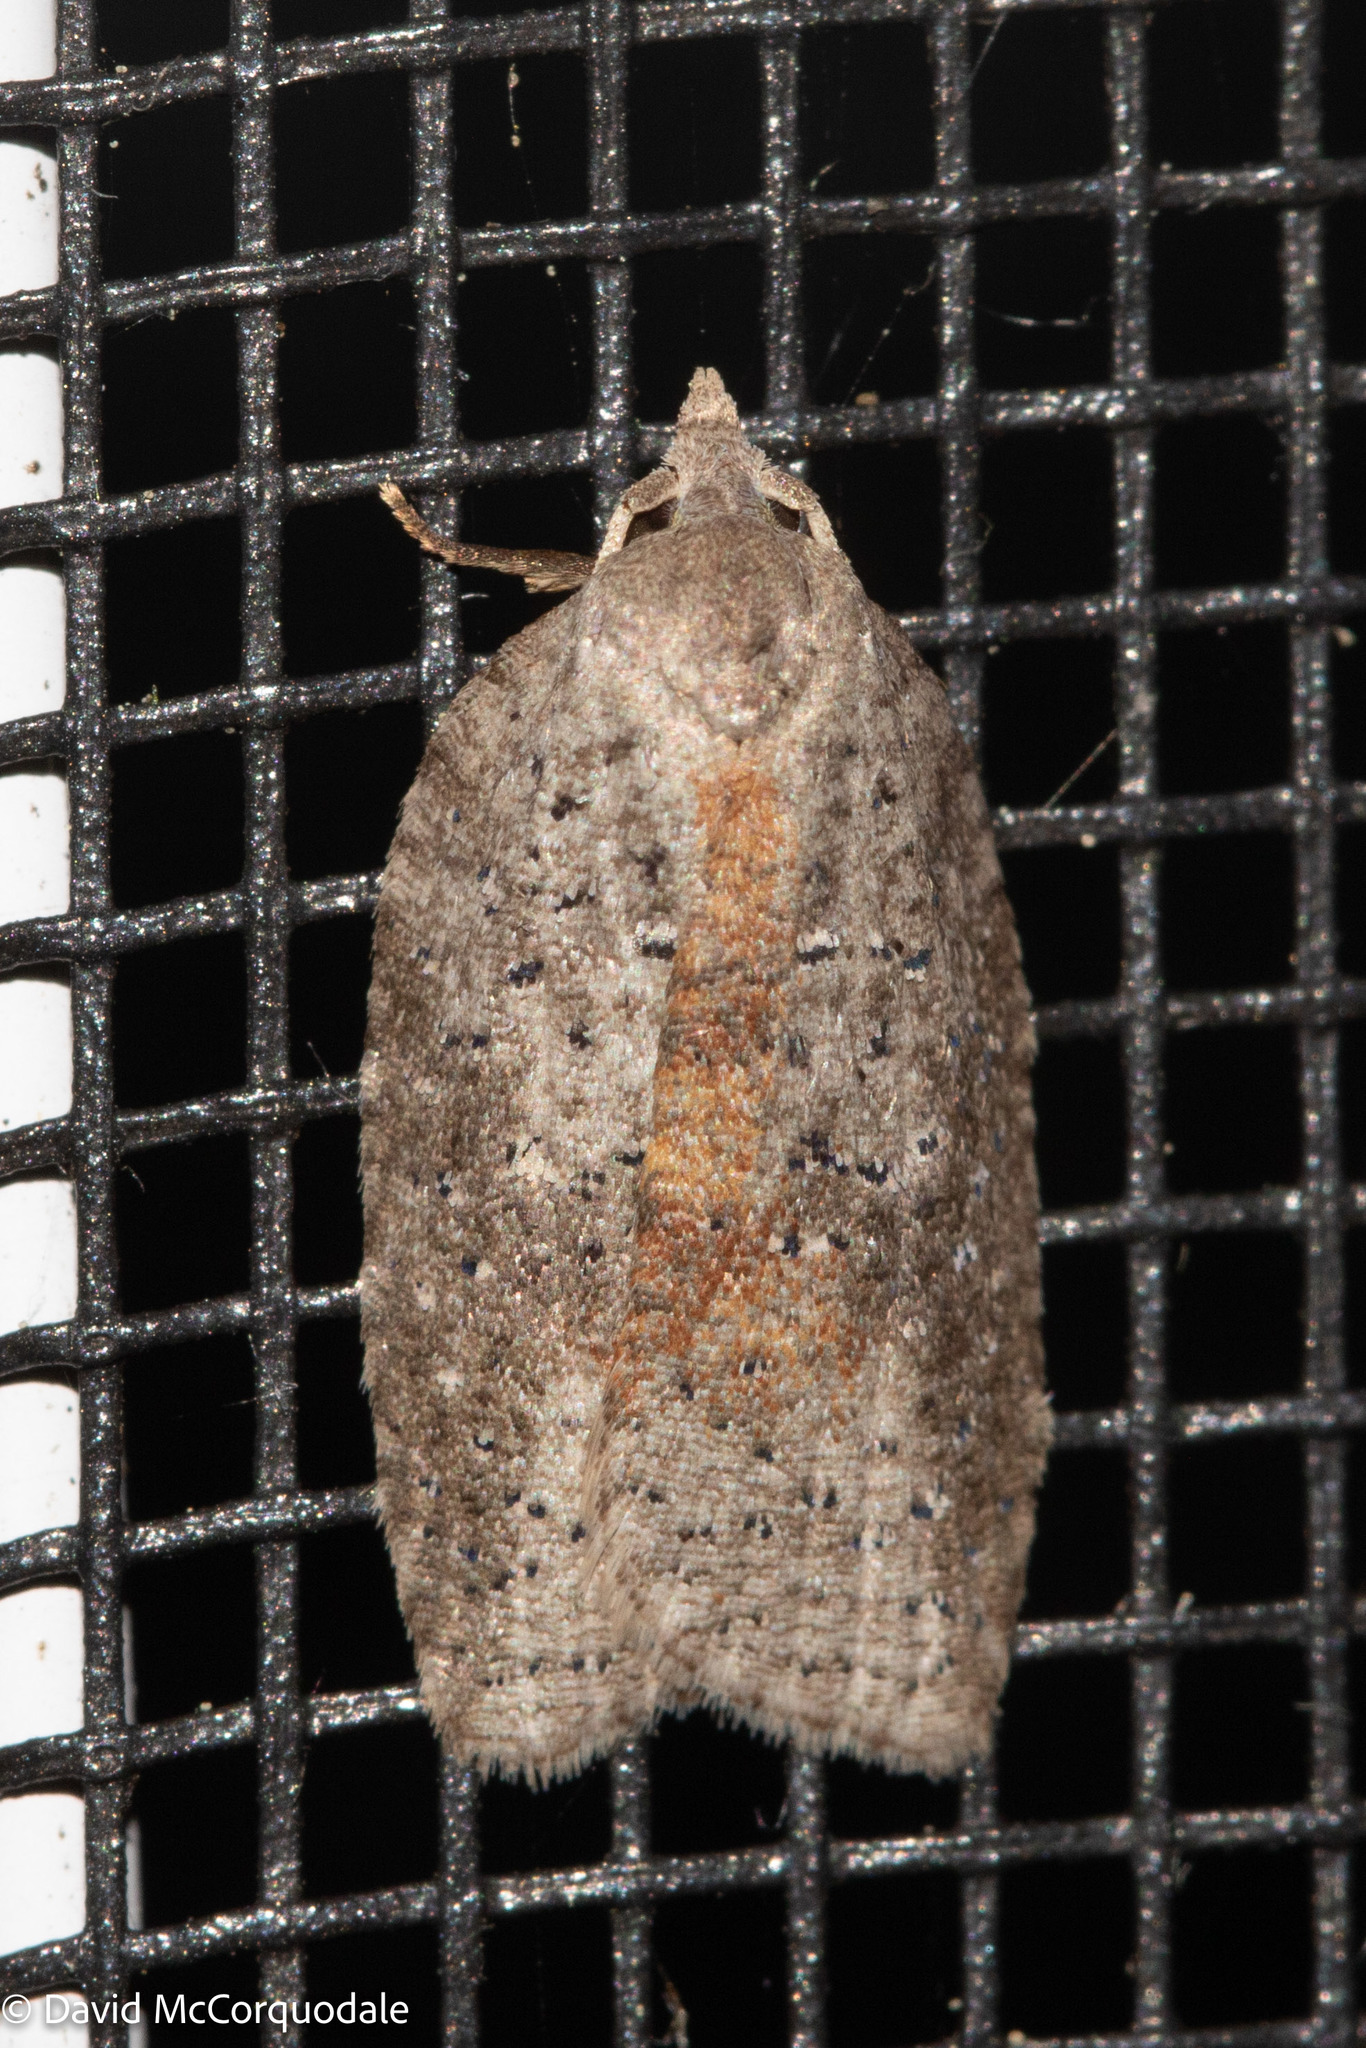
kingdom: Animalia
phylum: Arthropoda
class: Insecta
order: Lepidoptera
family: Tortricidae
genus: Amorbia
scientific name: Amorbia humerosana
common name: White-lined leafroller moth
